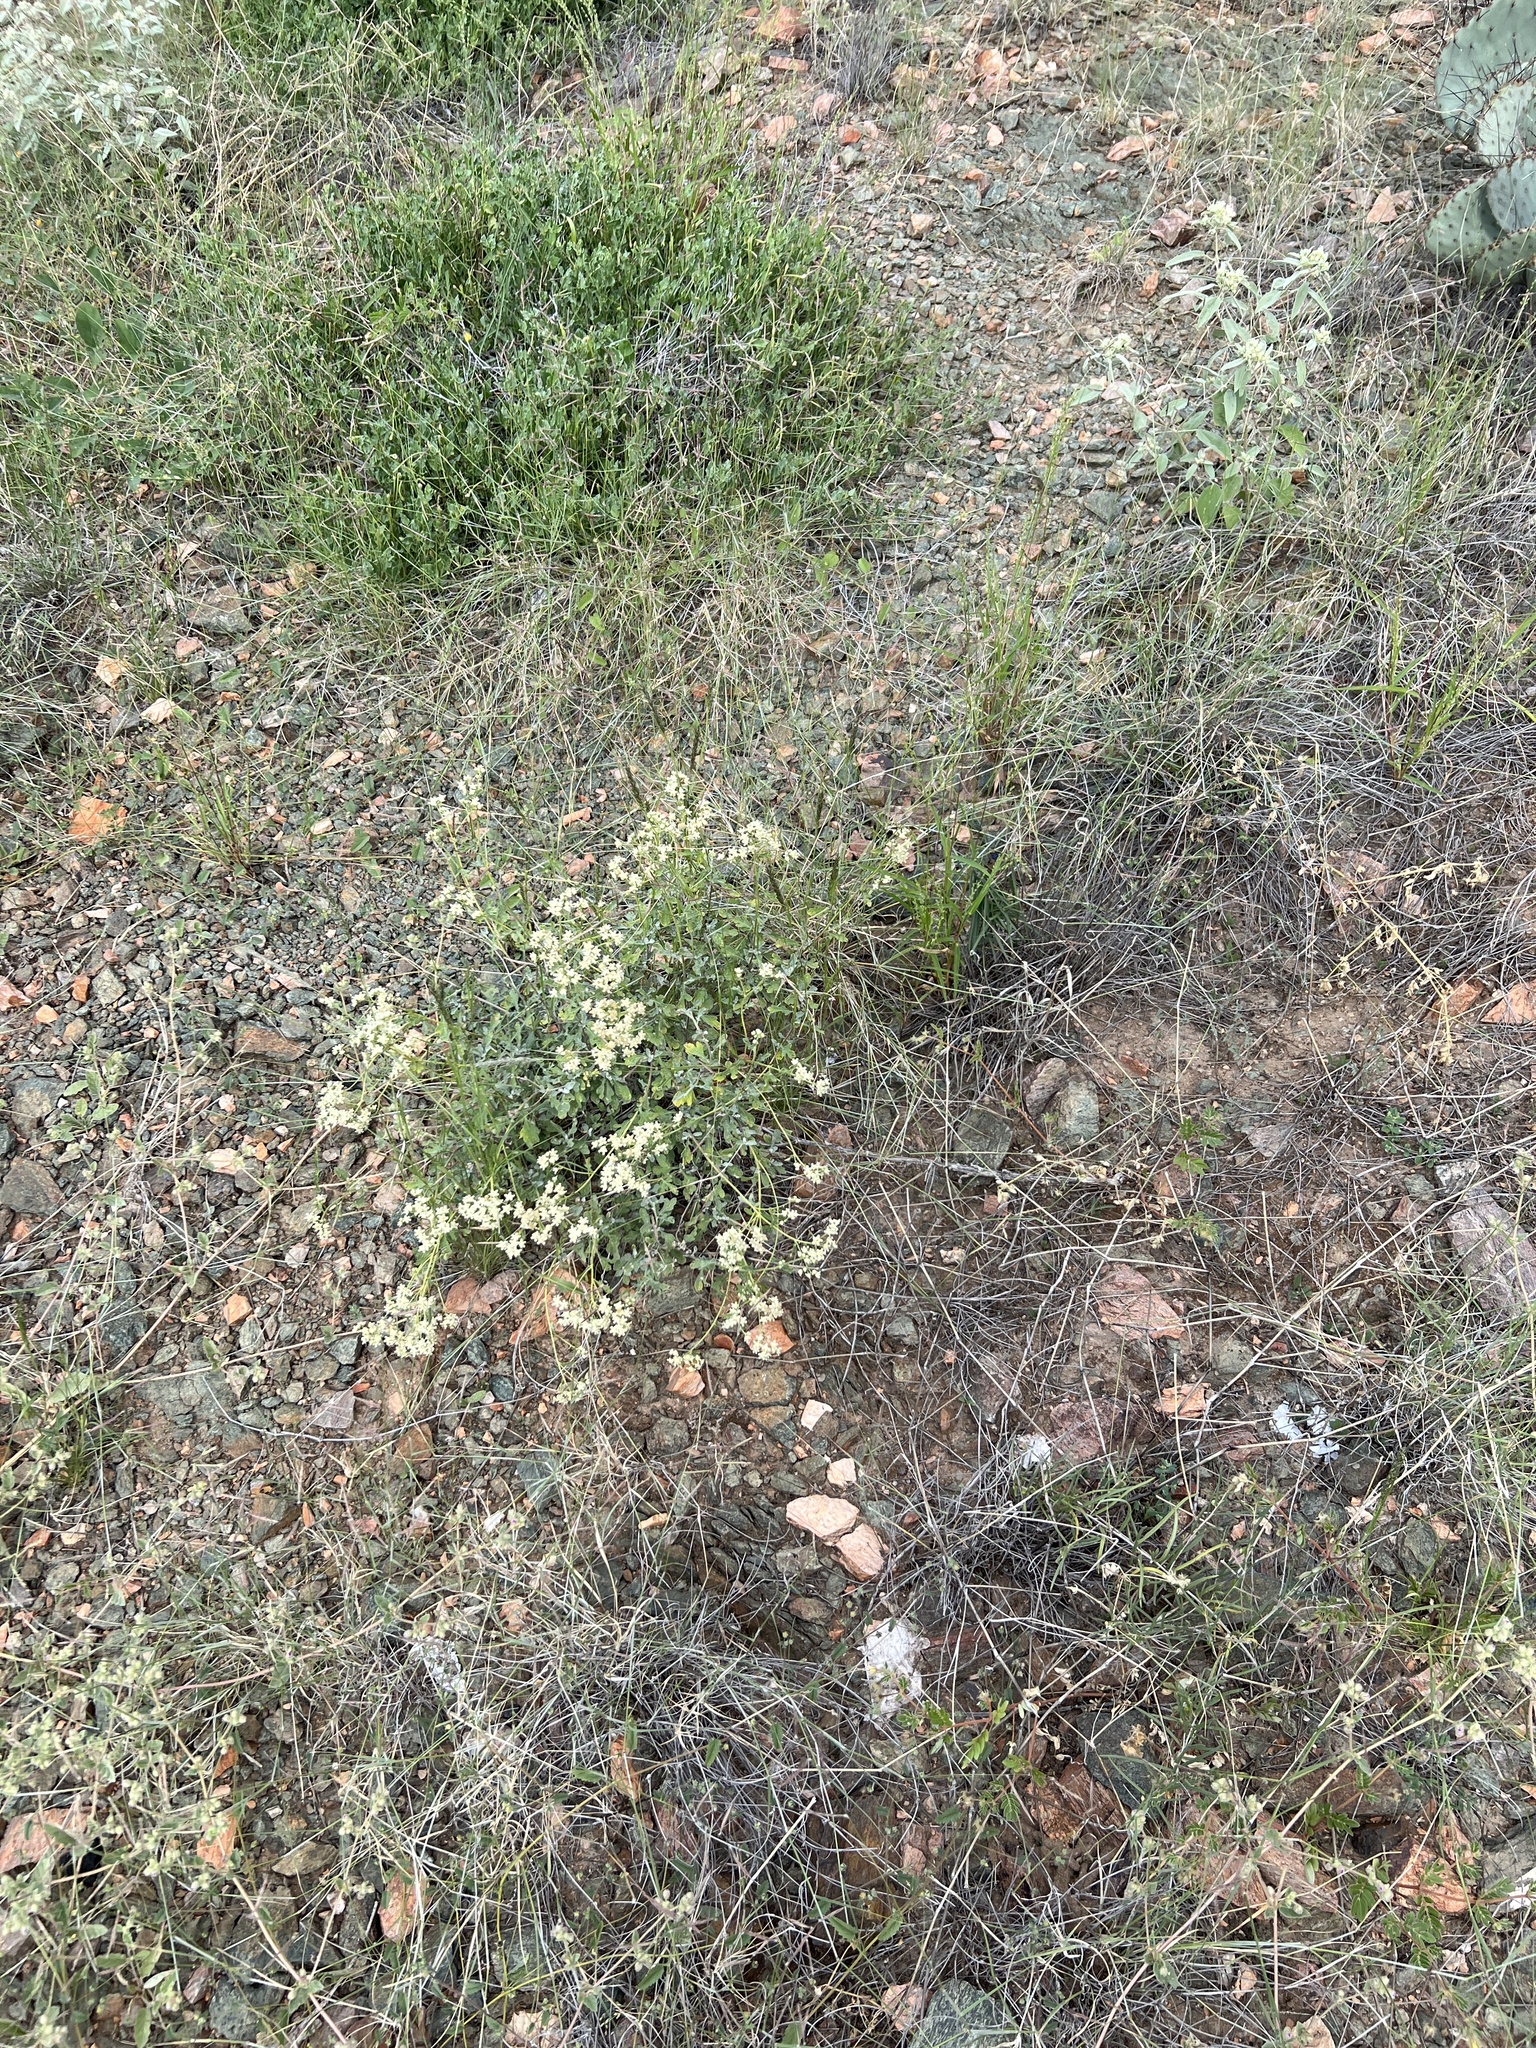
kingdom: Plantae
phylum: Tracheophyta
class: Magnoliopsida
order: Asterales
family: Asteraceae
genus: Parthenium
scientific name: Parthenium incanum
